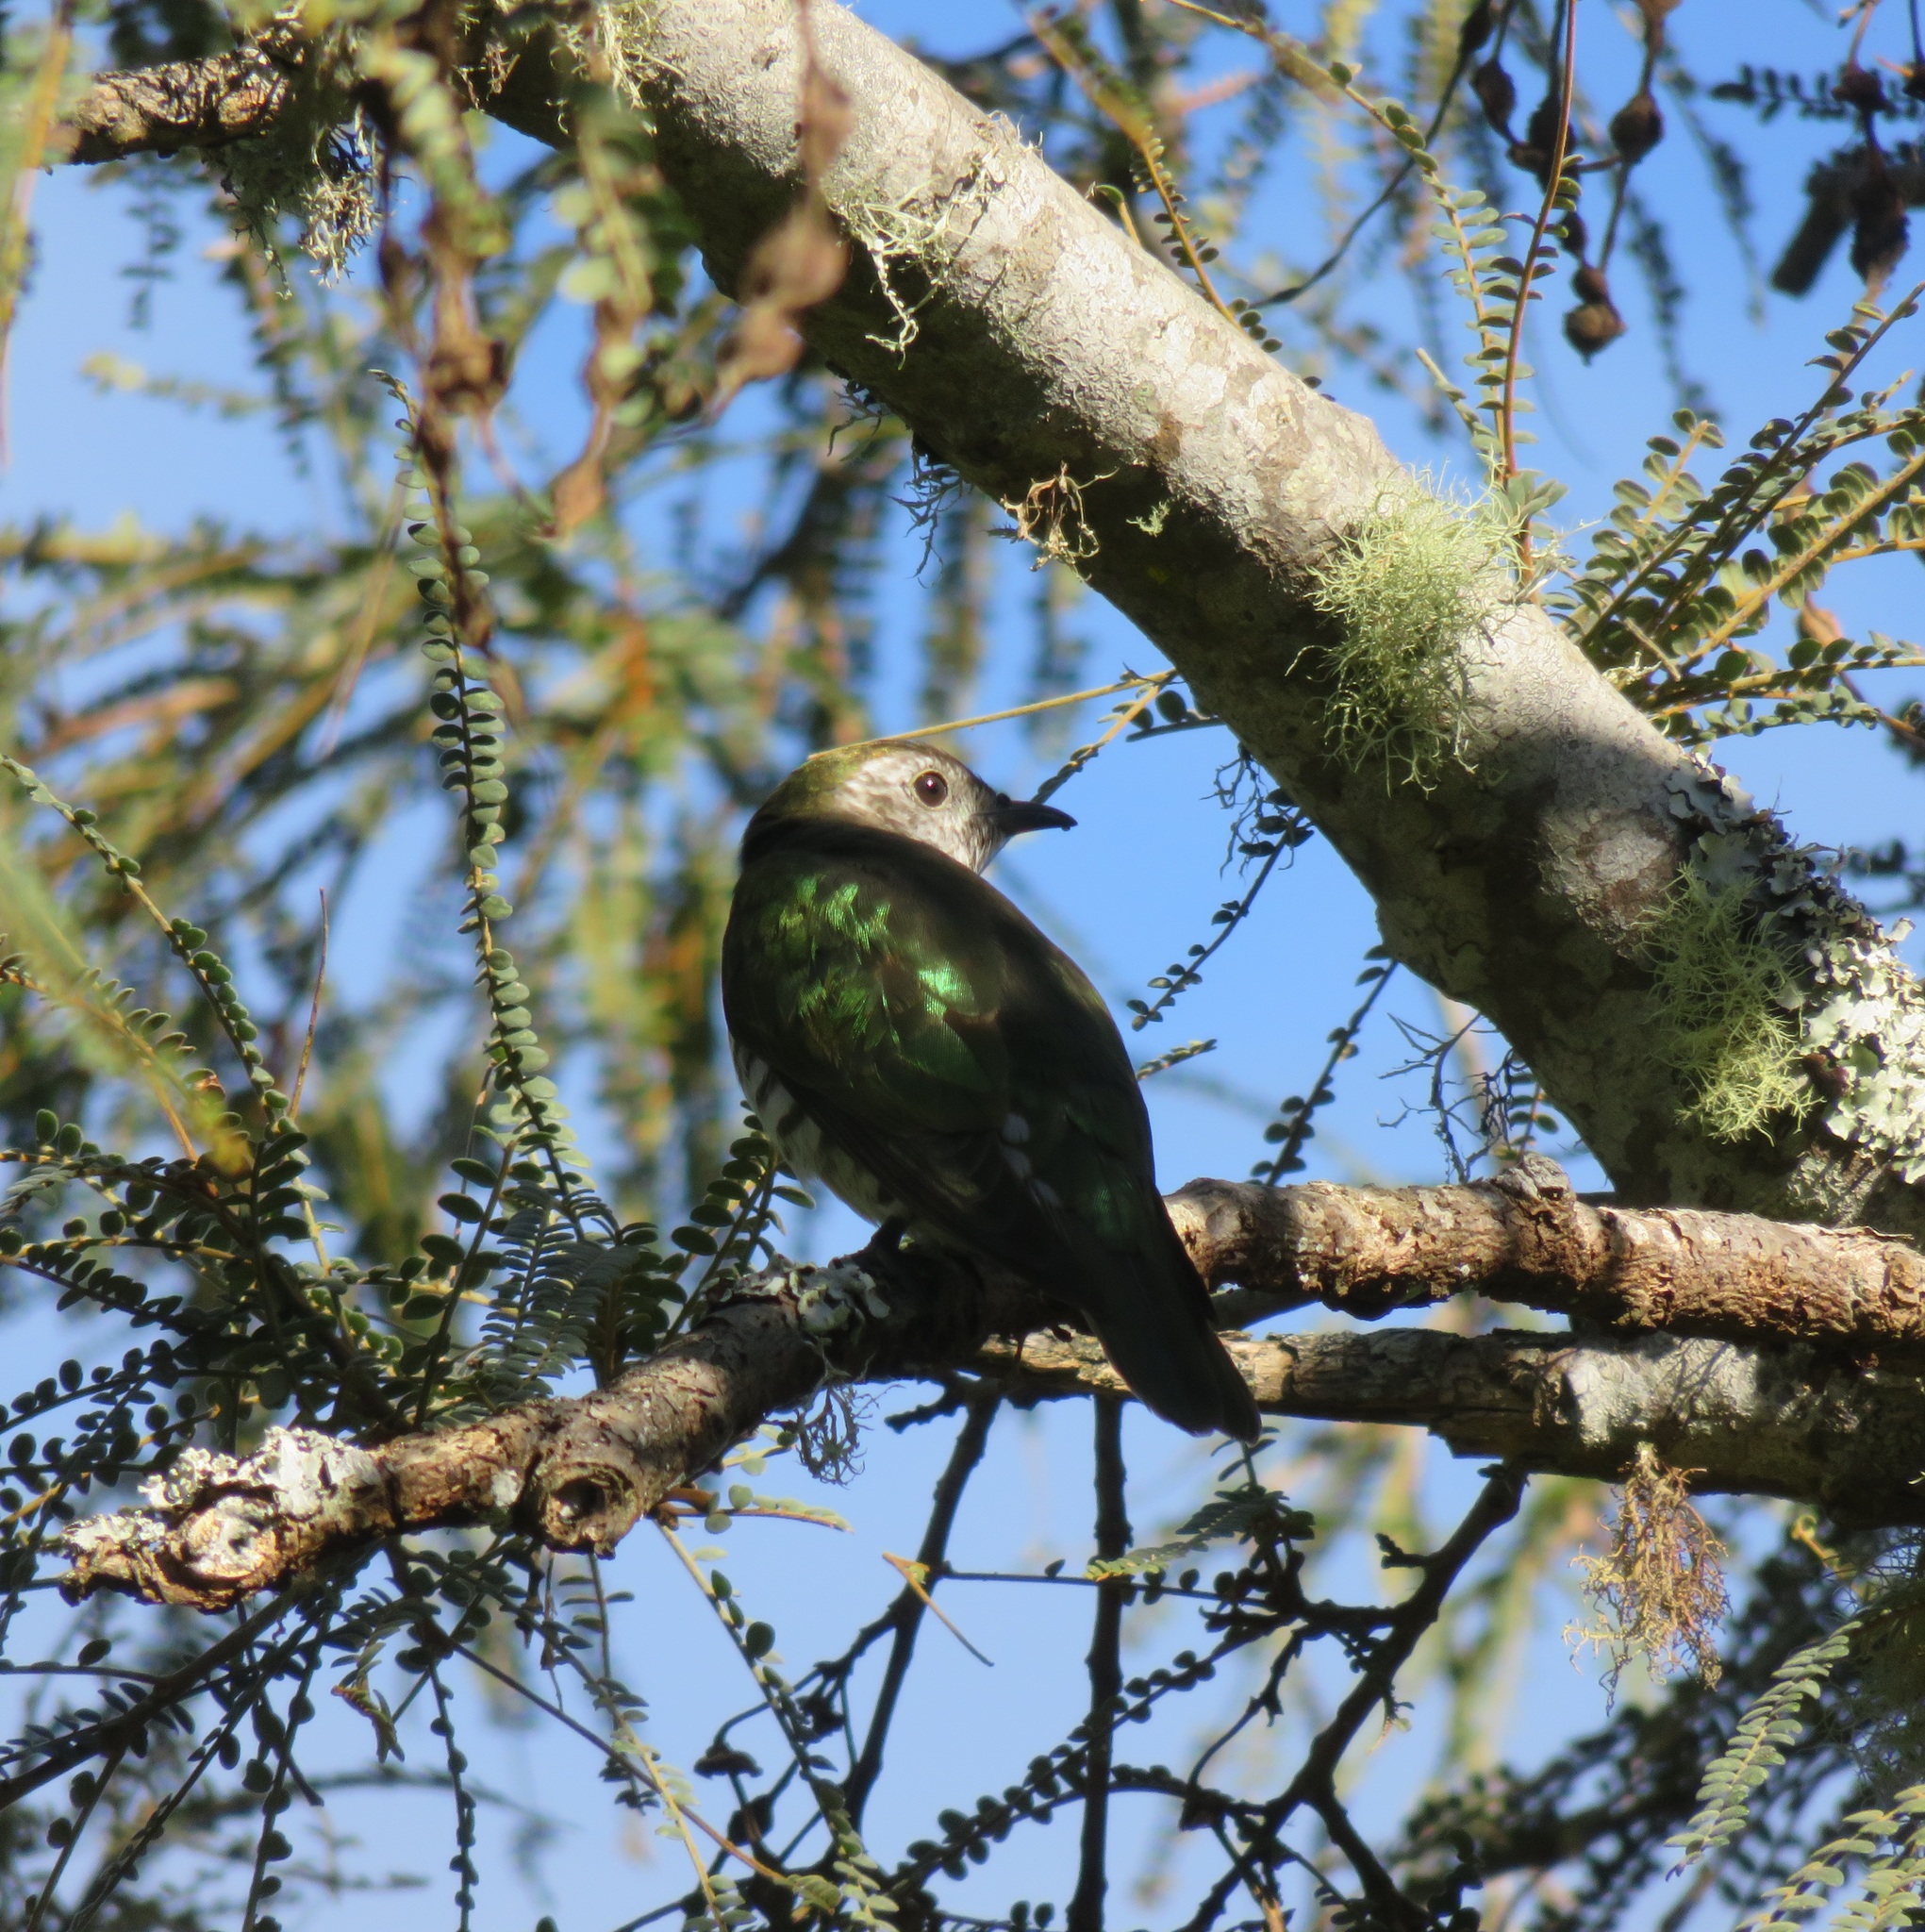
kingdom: Animalia
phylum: Chordata
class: Aves
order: Cuculiformes
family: Cuculidae
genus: Chrysococcyx
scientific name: Chrysococcyx lucidus
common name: Shining bronze cuckoo
